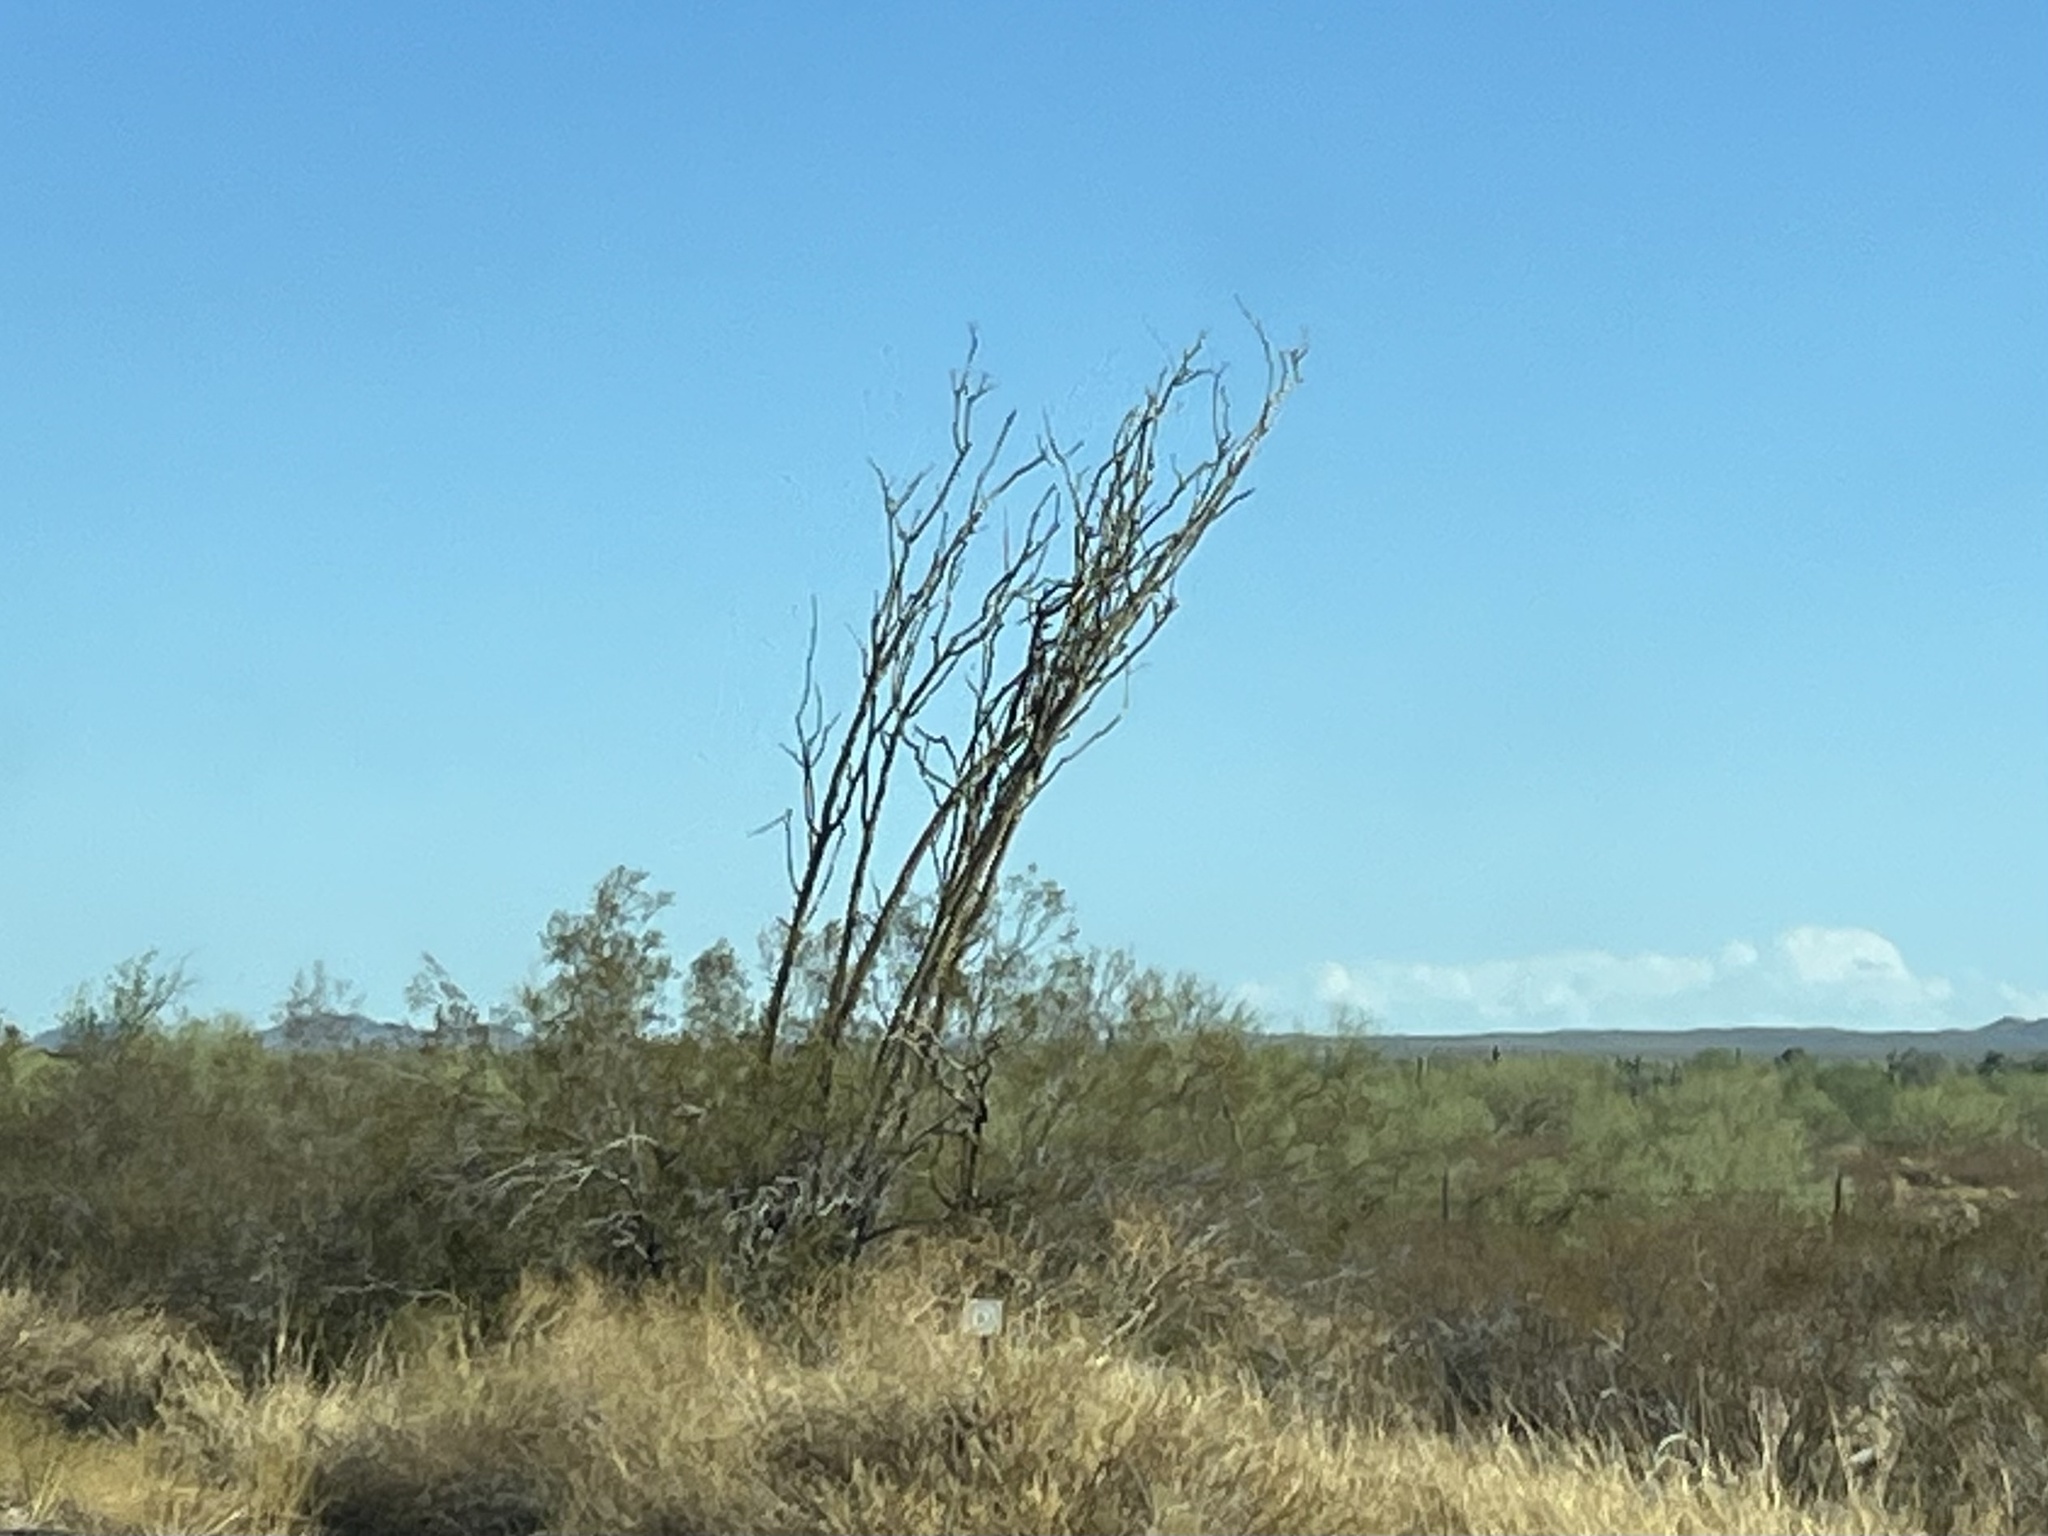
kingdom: Plantae
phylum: Tracheophyta
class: Magnoliopsida
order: Ericales
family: Fouquieriaceae
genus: Fouquieria
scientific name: Fouquieria splendens
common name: Vine-cactus
